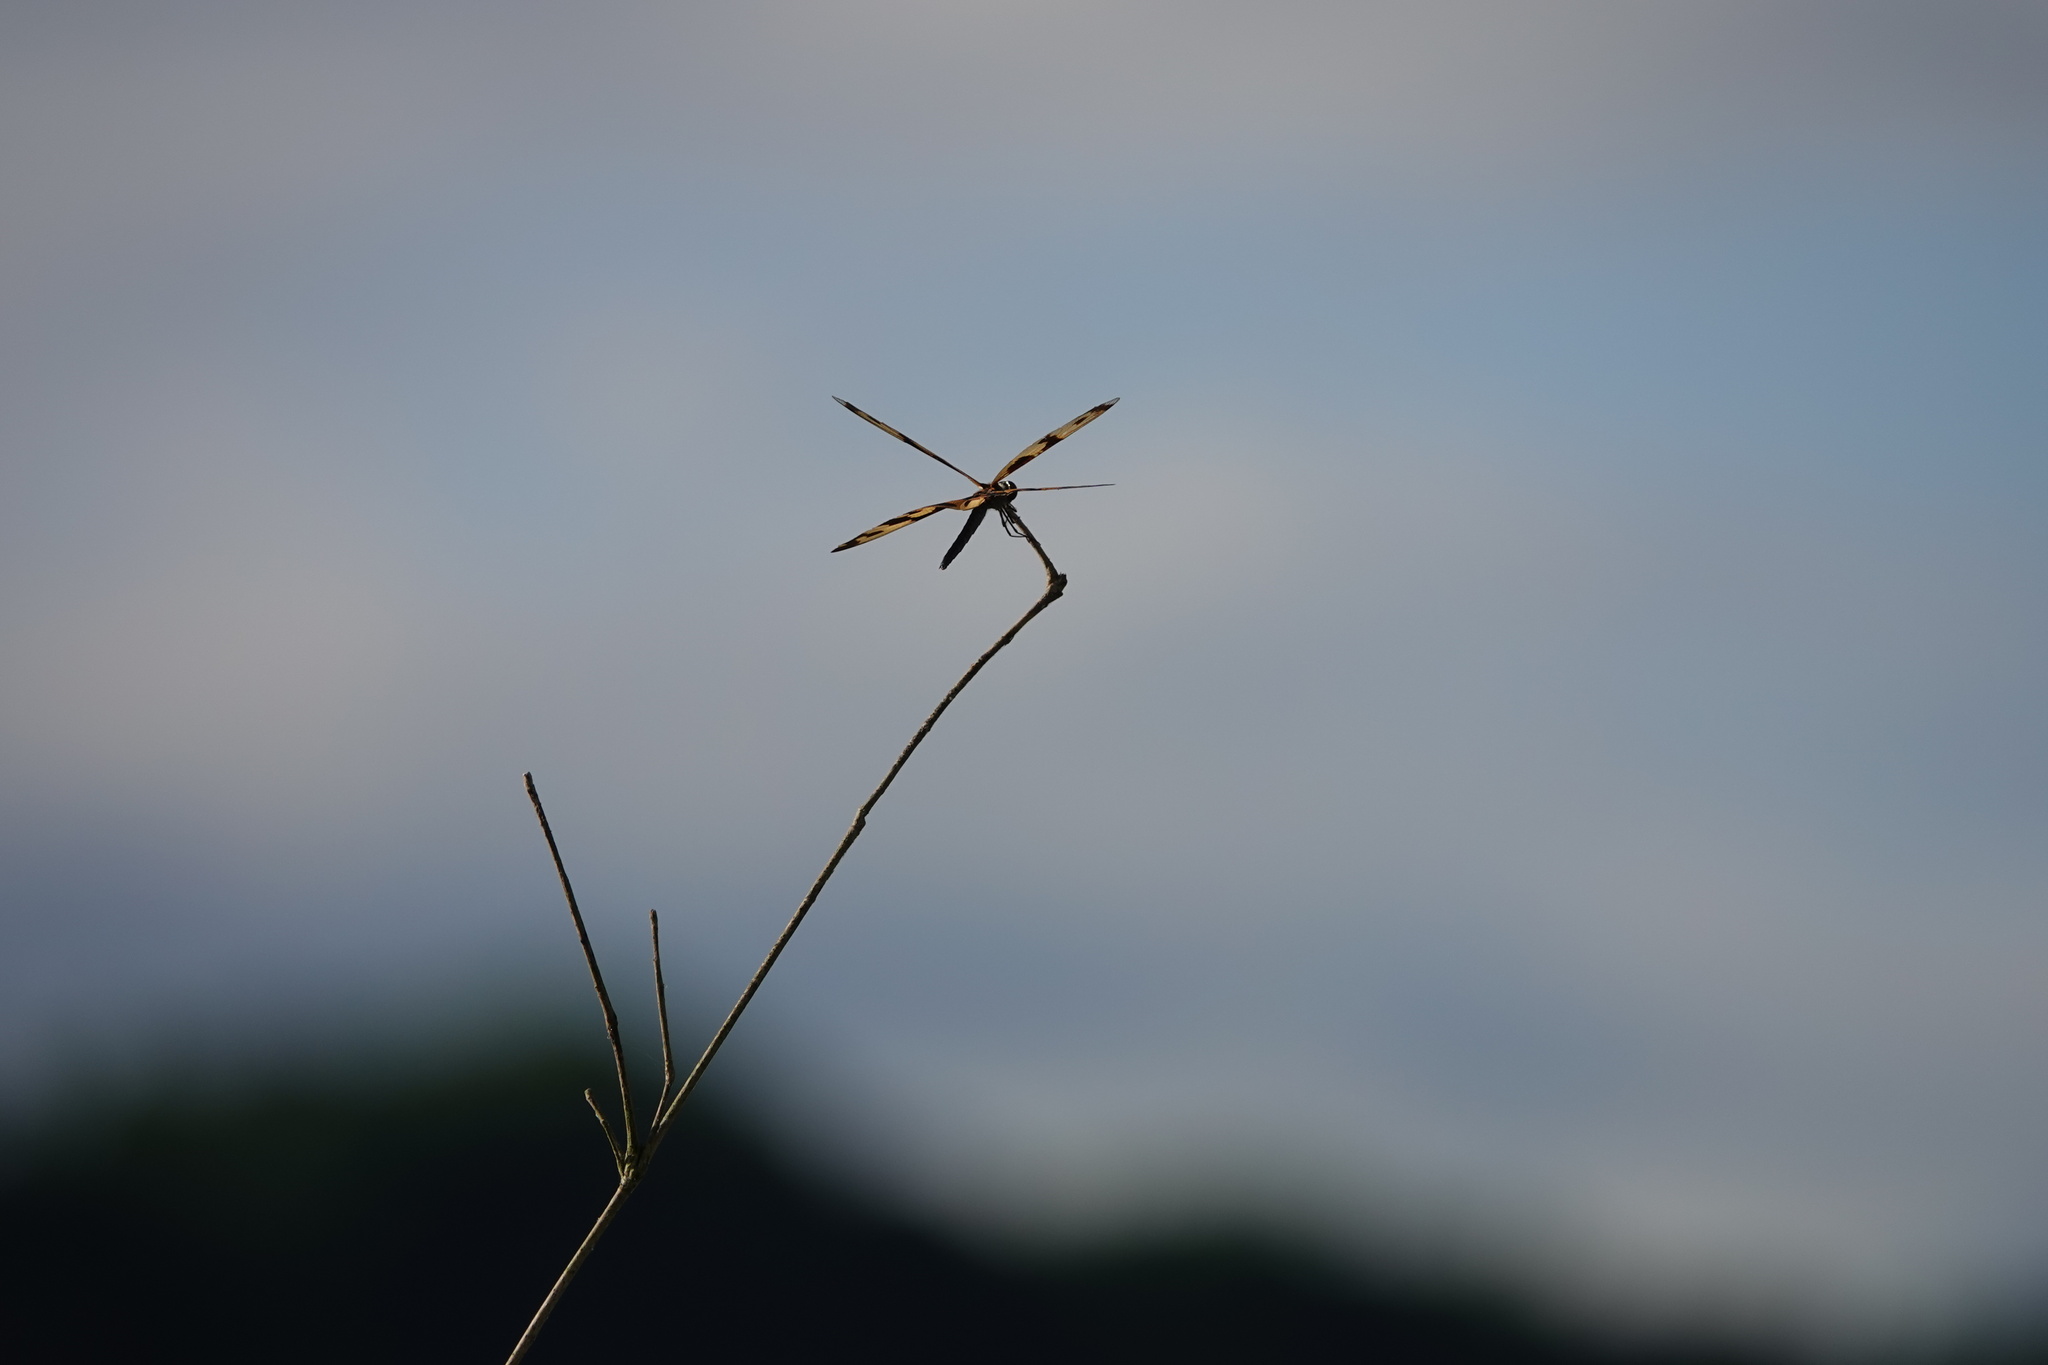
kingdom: Animalia
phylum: Arthropoda
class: Insecta
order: Odonata
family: Libellulidae
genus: Rhyothemis
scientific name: Rhyothemis variegata
